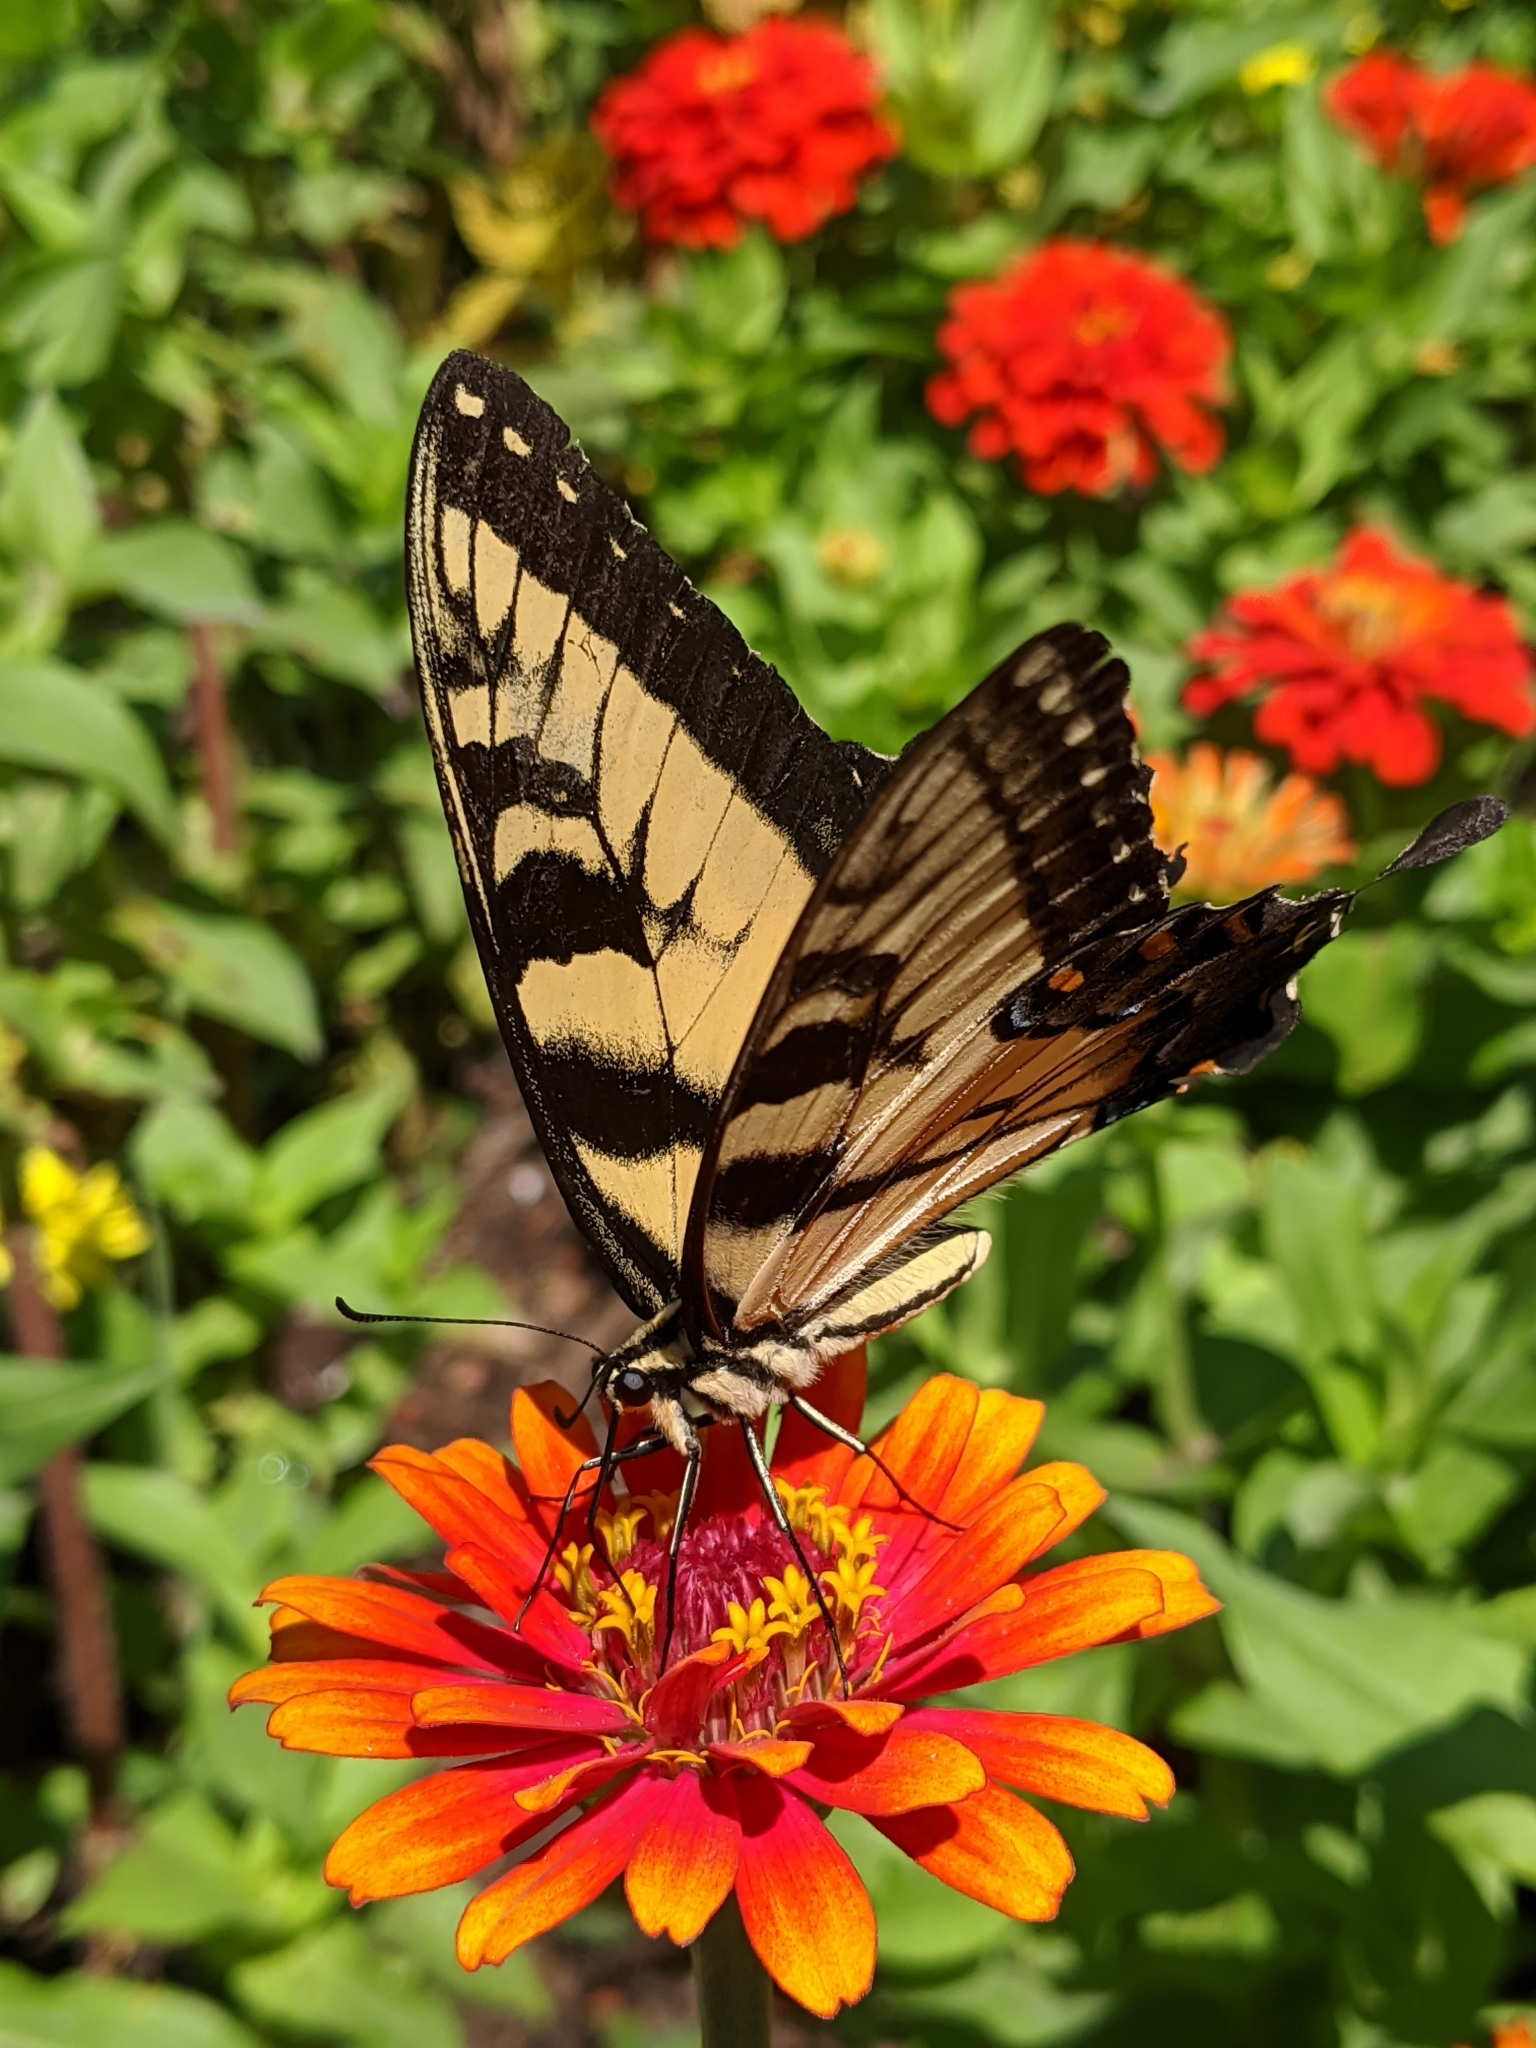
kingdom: Animalia
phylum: Arthropoda
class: Insecta
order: Lepidoptera
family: Papilionidae
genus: Papilio
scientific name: Papilio glaucus
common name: Tiger swallowtail
